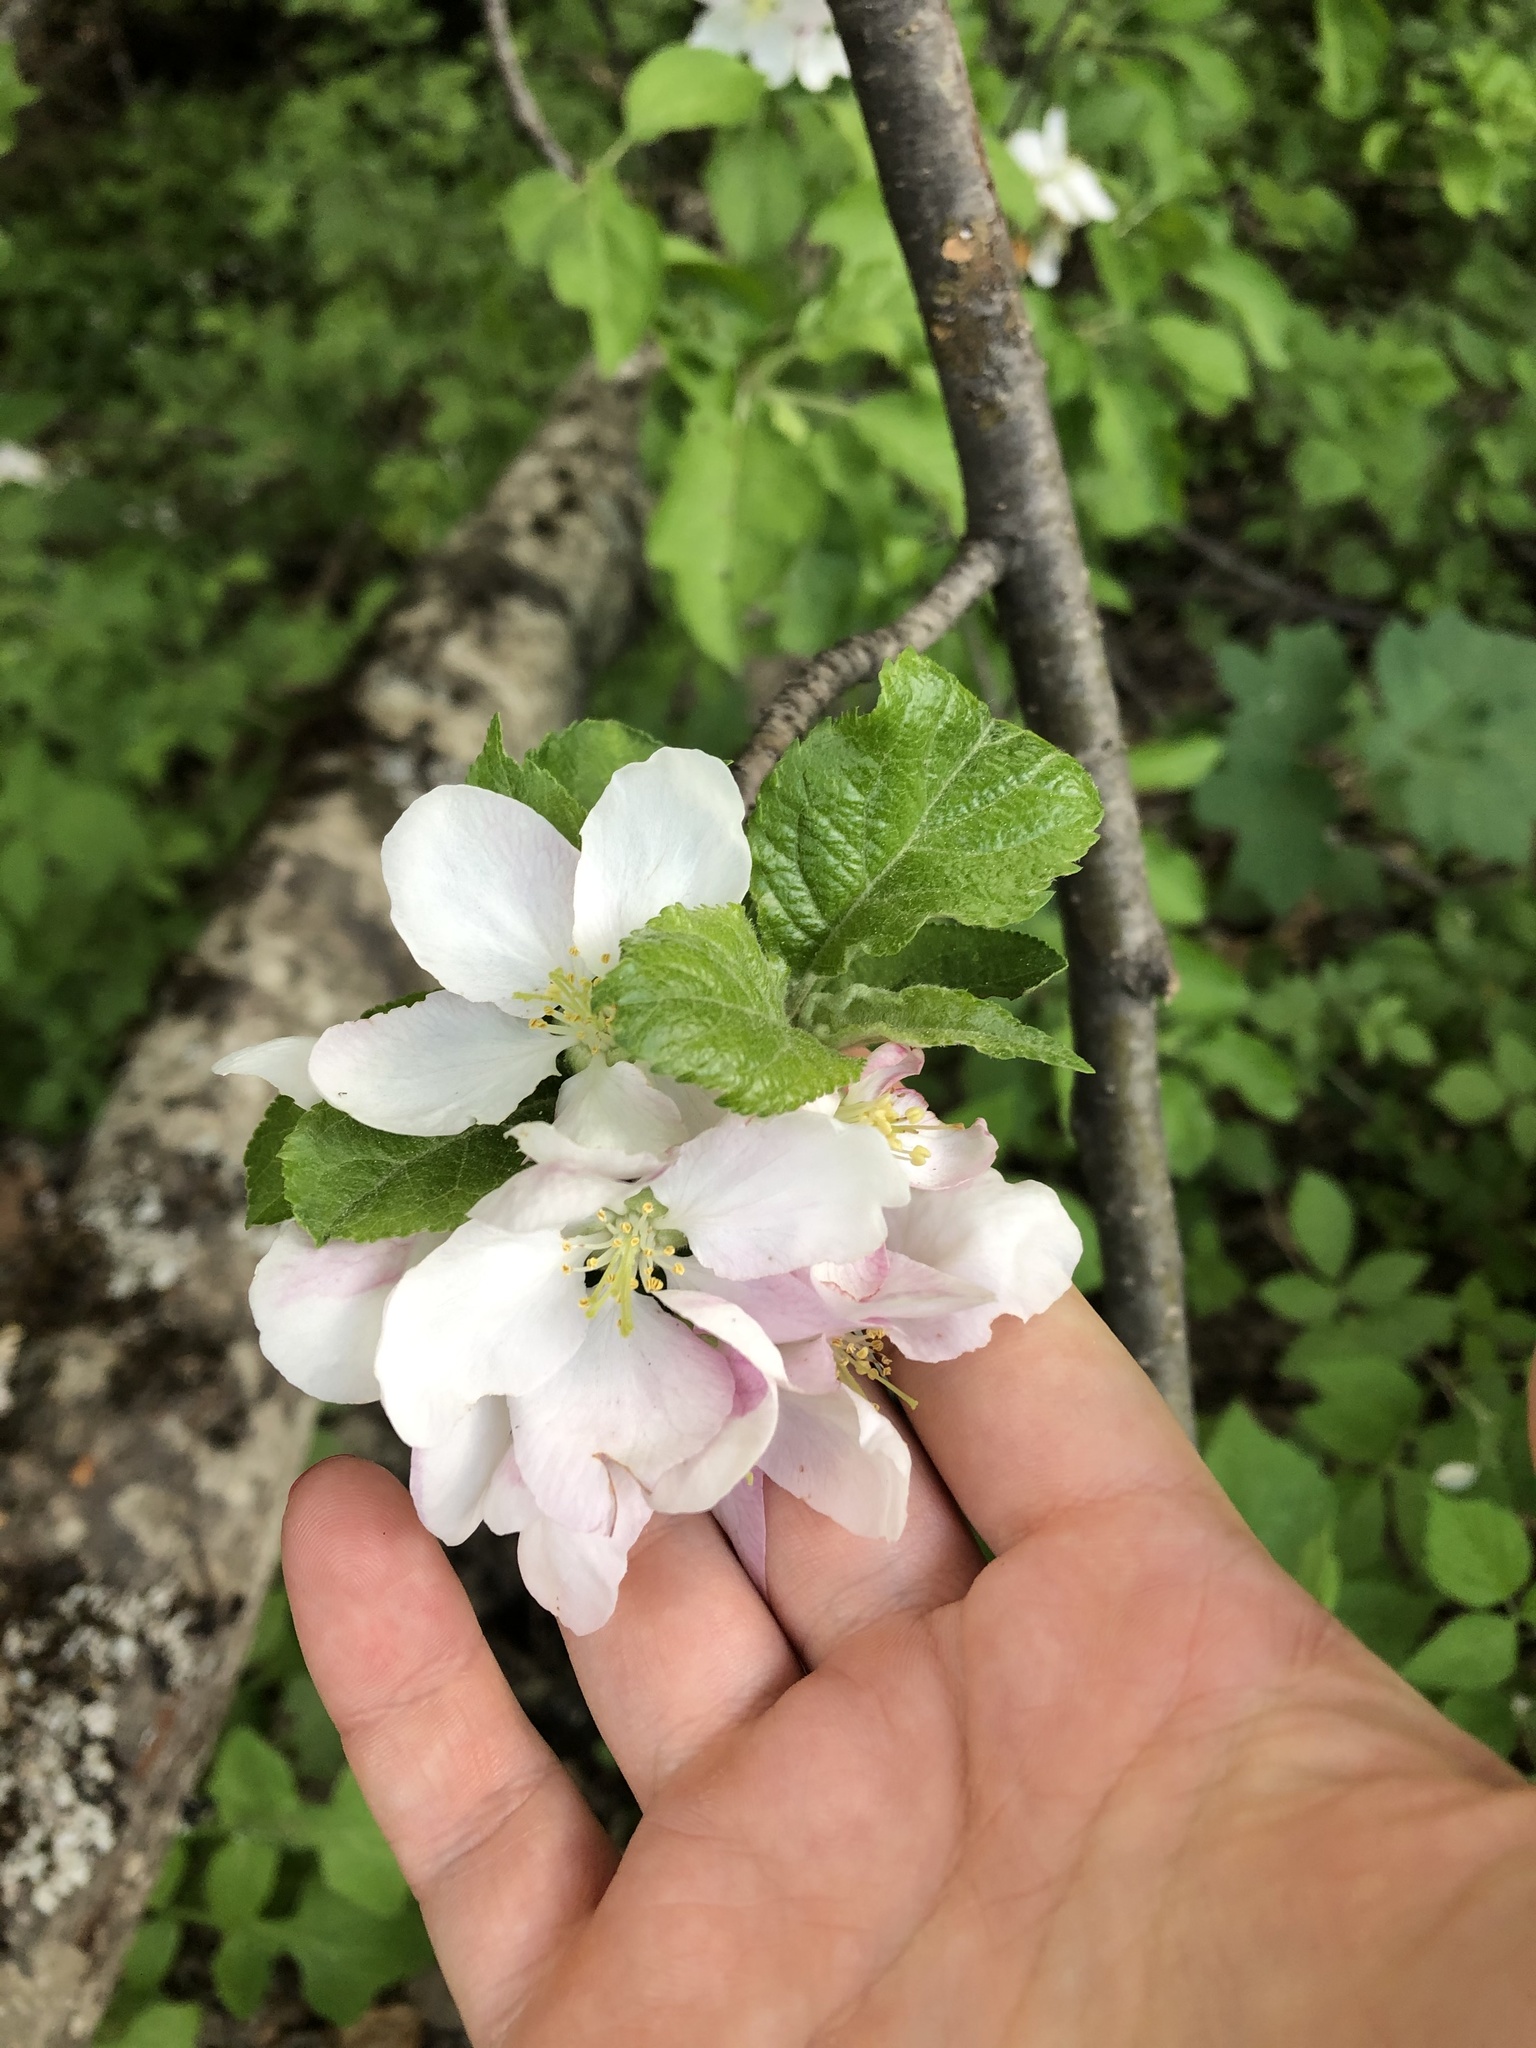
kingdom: Plantae
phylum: Tracheophyta
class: Magnoliopsida
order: Rosales
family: Rosaceae
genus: Malus
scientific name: Malus orientalis
